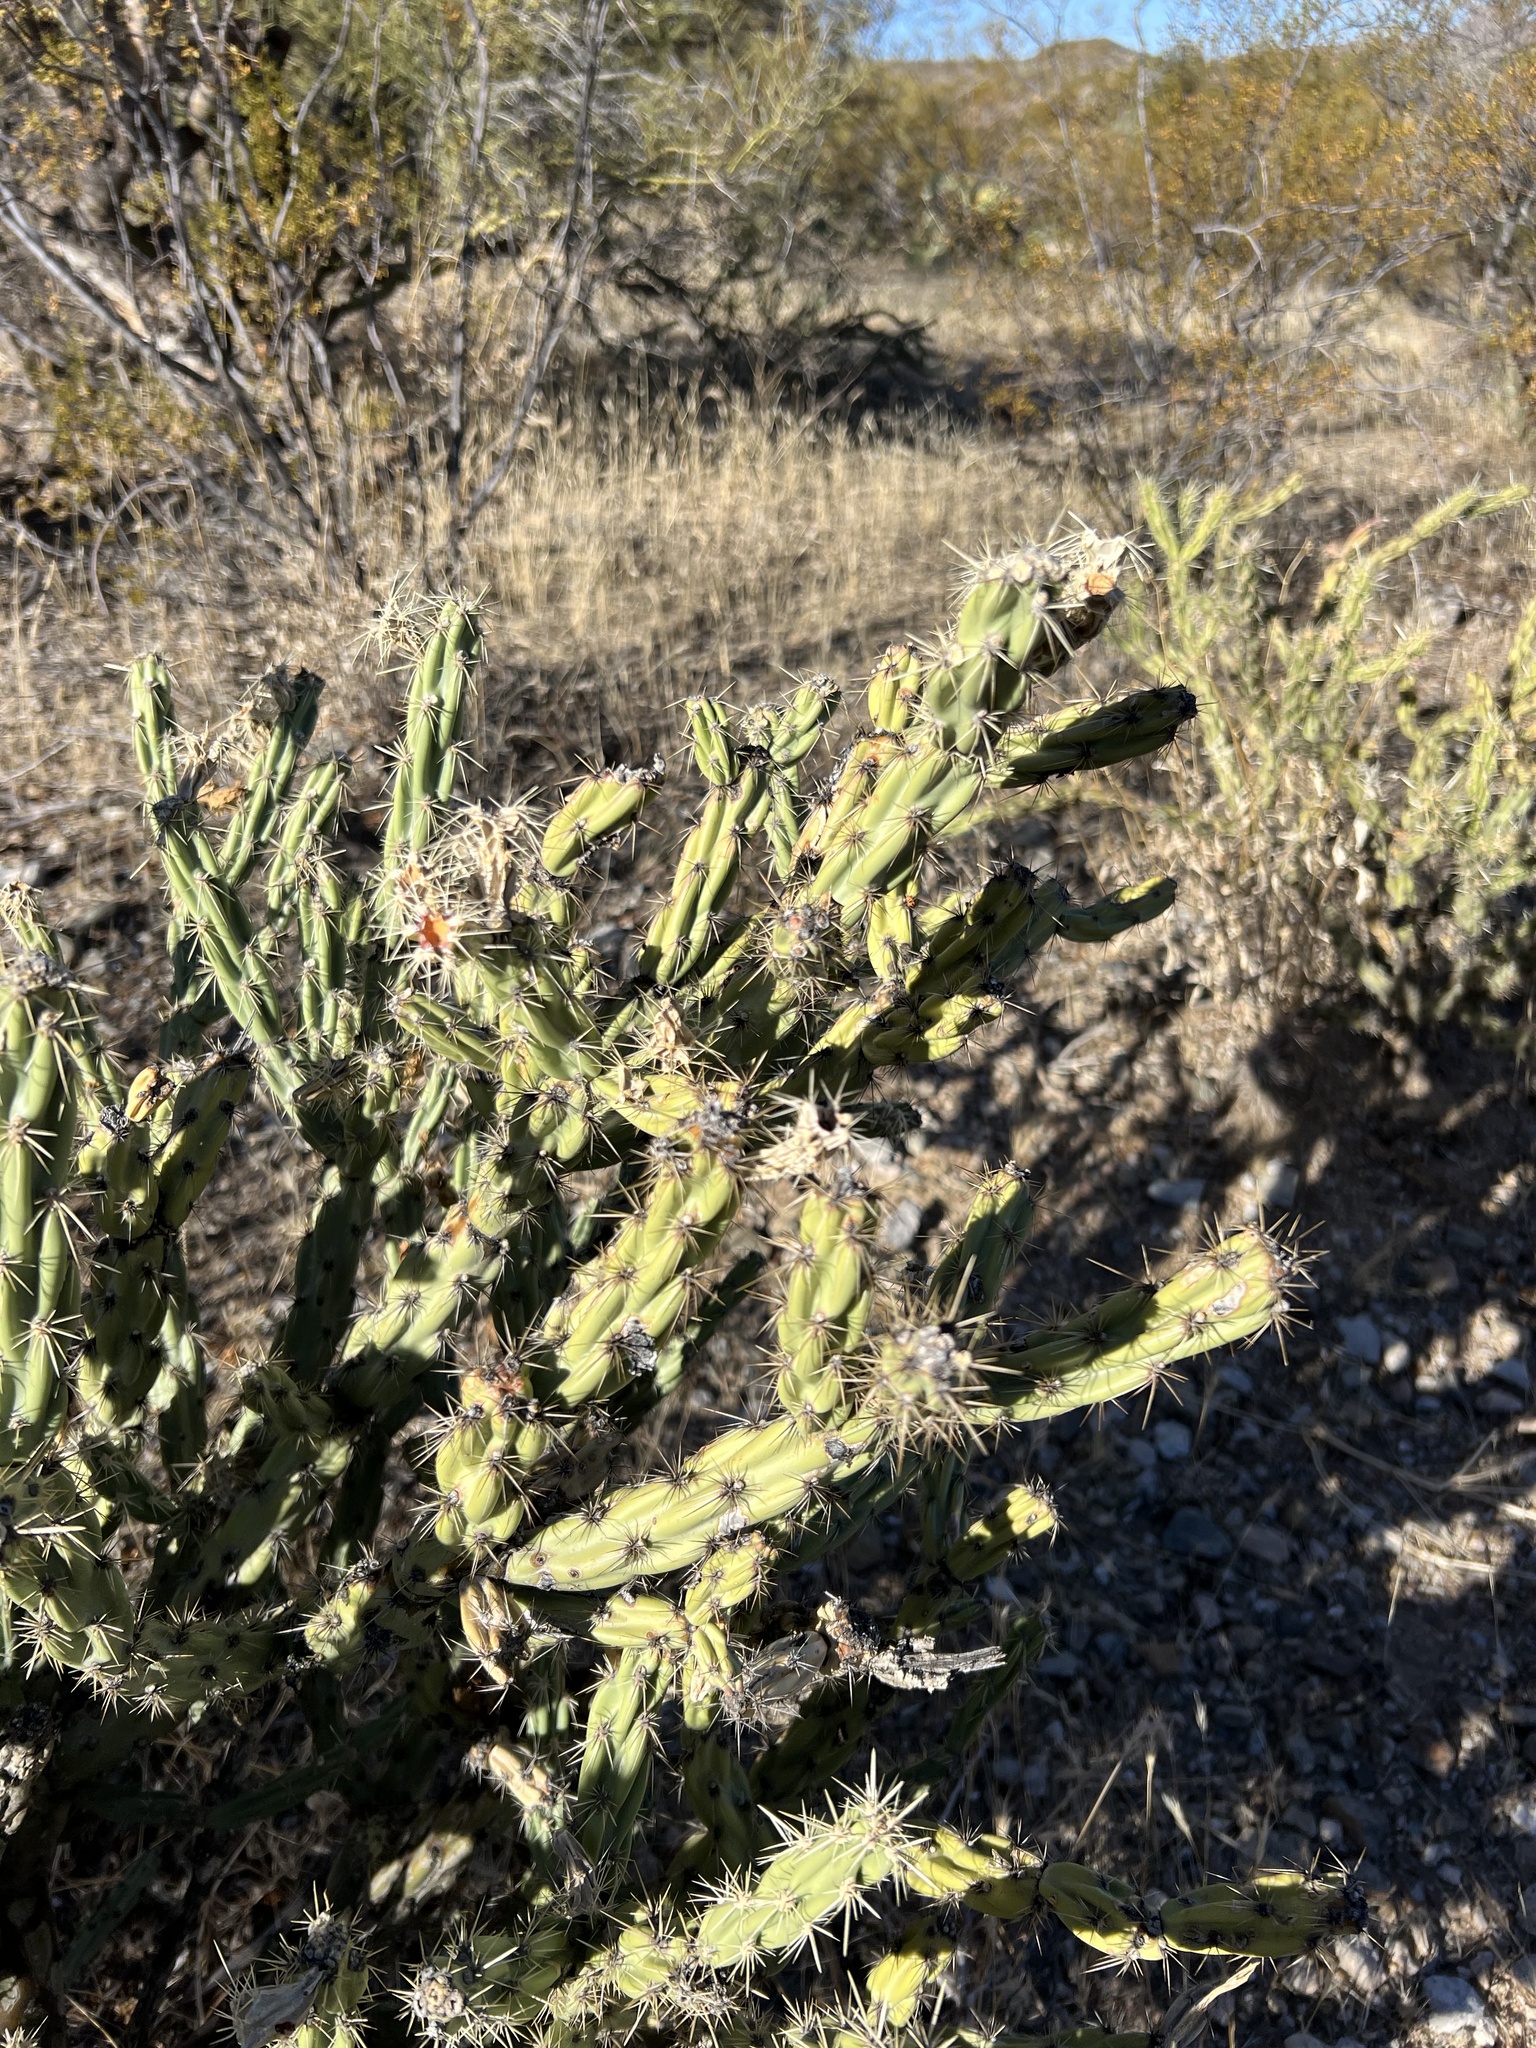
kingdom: Plantae
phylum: Tracheophyta
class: Magnoliopsida
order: Caryophyllales
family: Cactaceae
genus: Cylindropuntia
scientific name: Cylindropuntia acanthocarpa
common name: Buckhorn cholla
